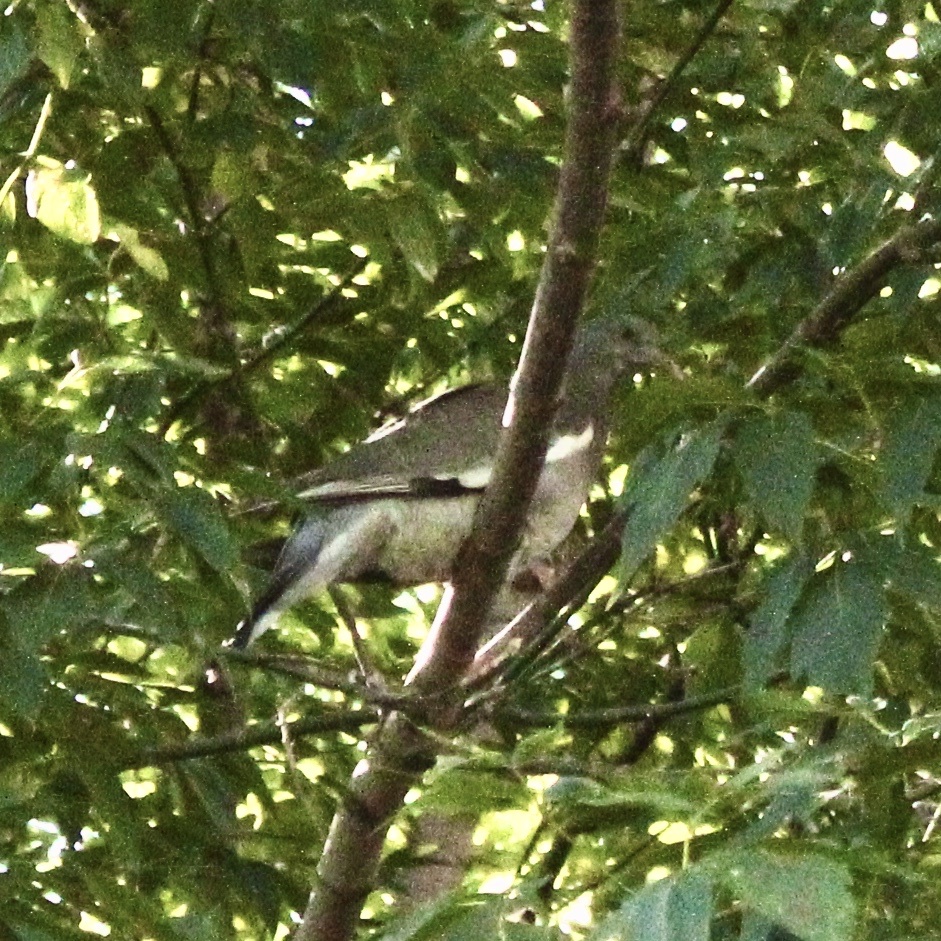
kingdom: Animalia
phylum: Chordata
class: Aves
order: Columbiformes
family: Columbidae
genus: Columba
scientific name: Columba palumbus
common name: Common wood pigeon
